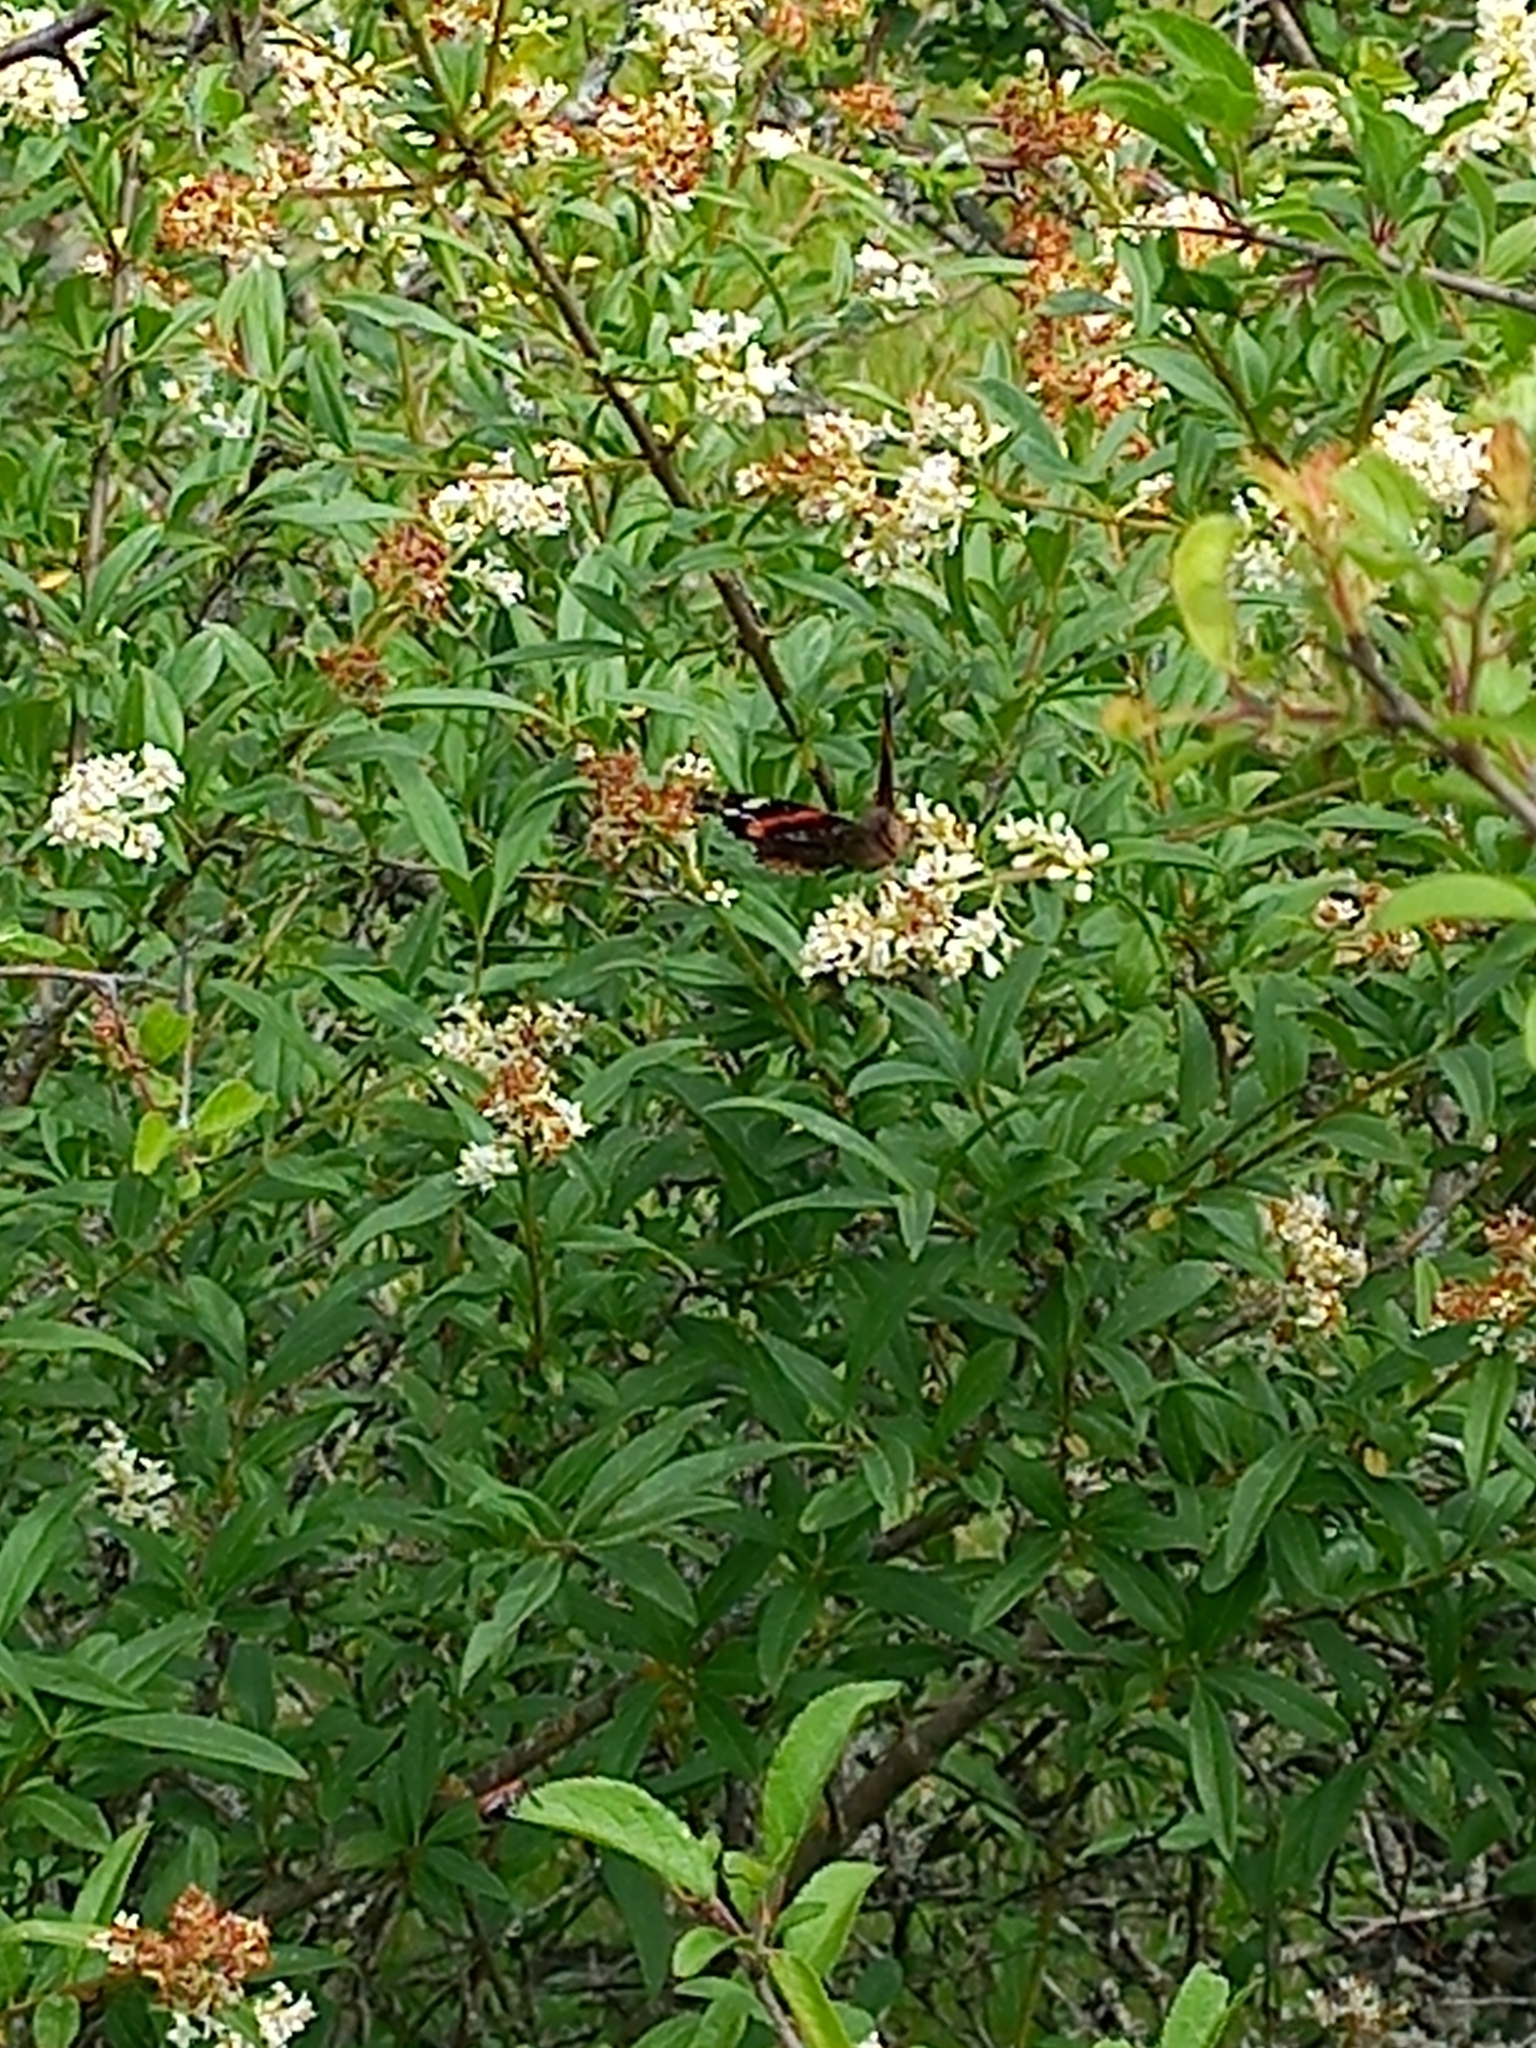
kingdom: Animalia
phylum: Arthropoda
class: Insecta
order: Lepidoptera
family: Nymphalidae
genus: Vanessa
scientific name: Vanessa atalanta
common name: Red admiral
